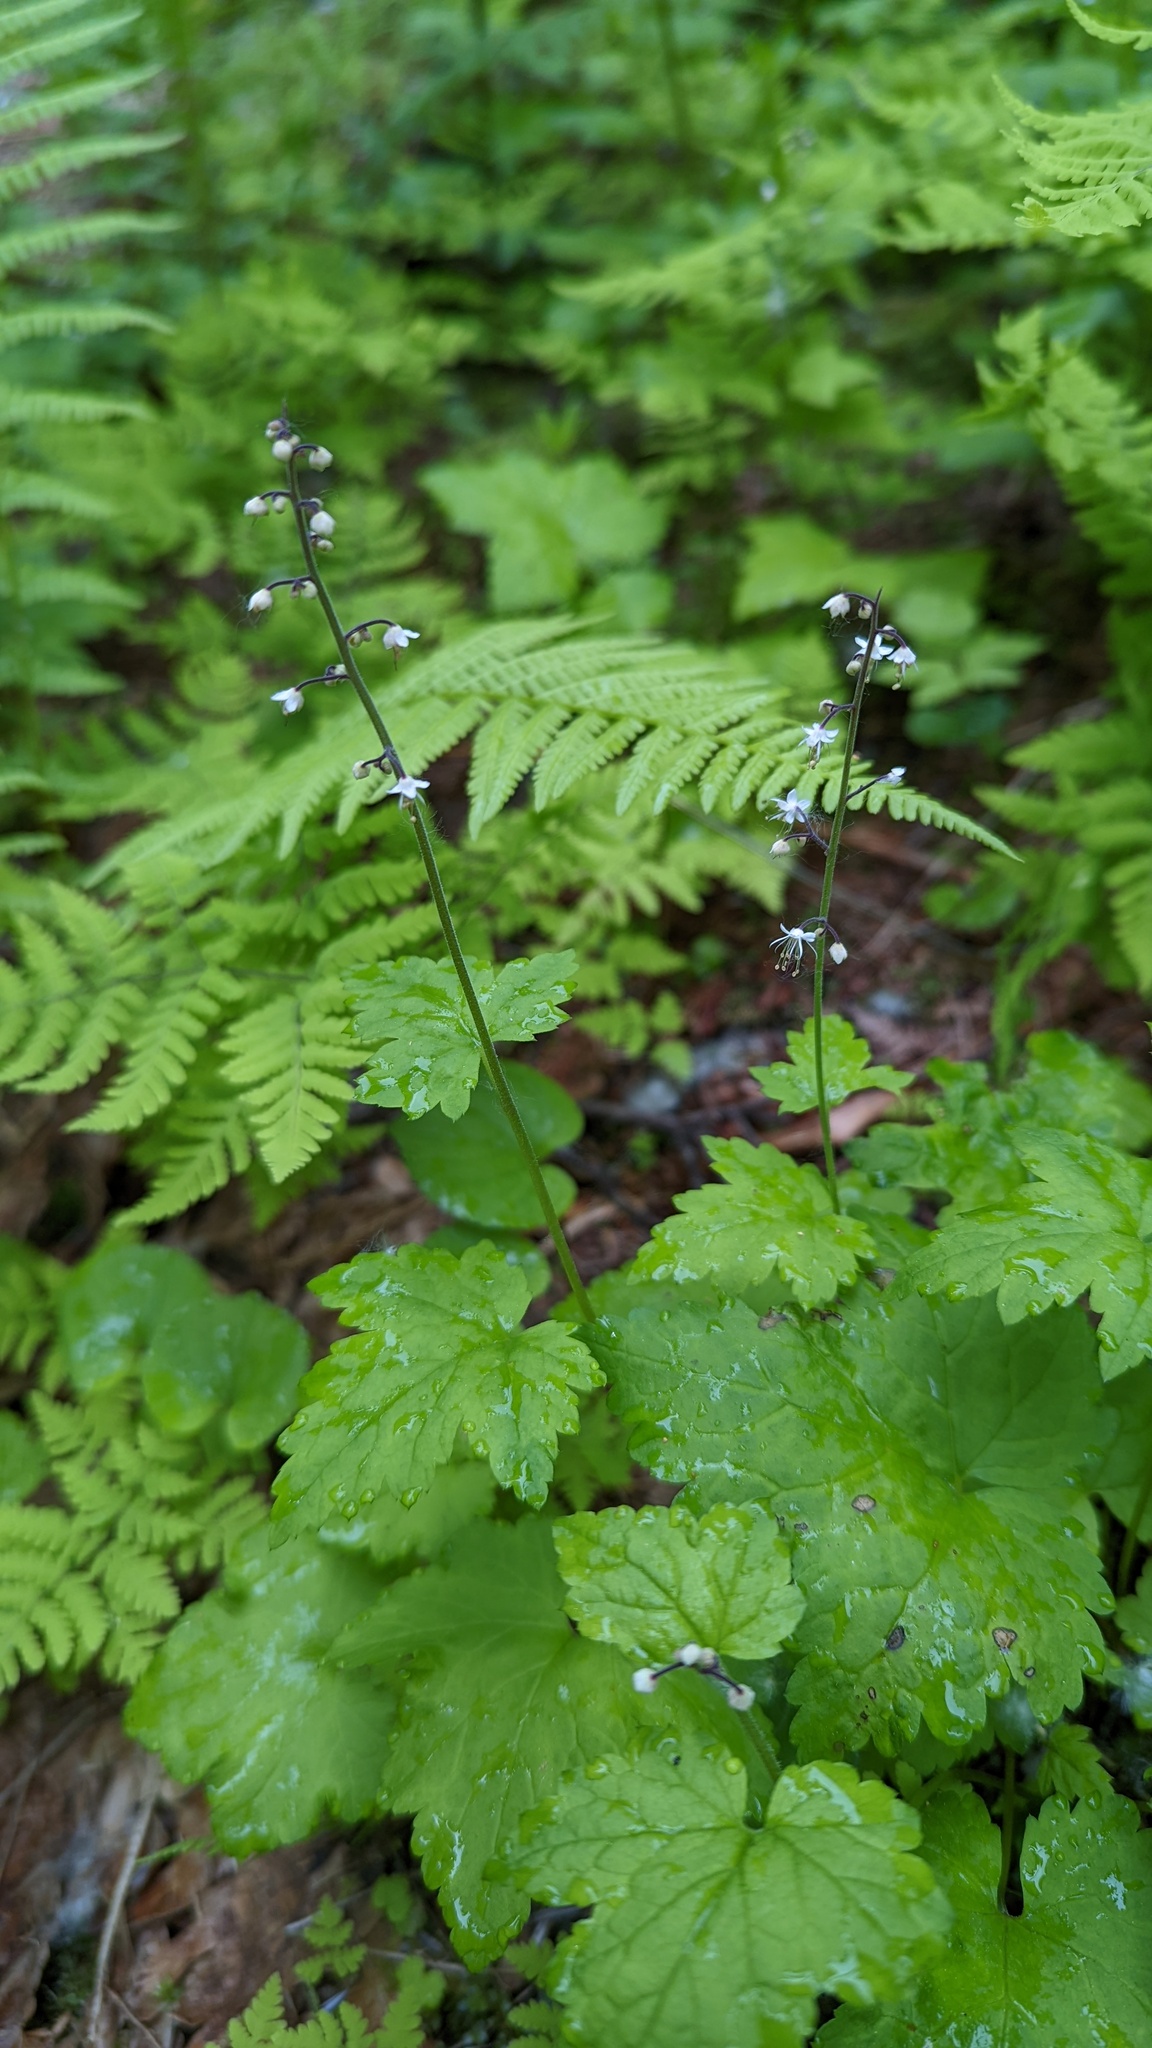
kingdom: Plantae
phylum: Tracheophyta
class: Magnoliopsida
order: Saxifragales
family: Saxifragaceae
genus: Tiarella
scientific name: Tiarella trifoliata
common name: Sugar-scoop
